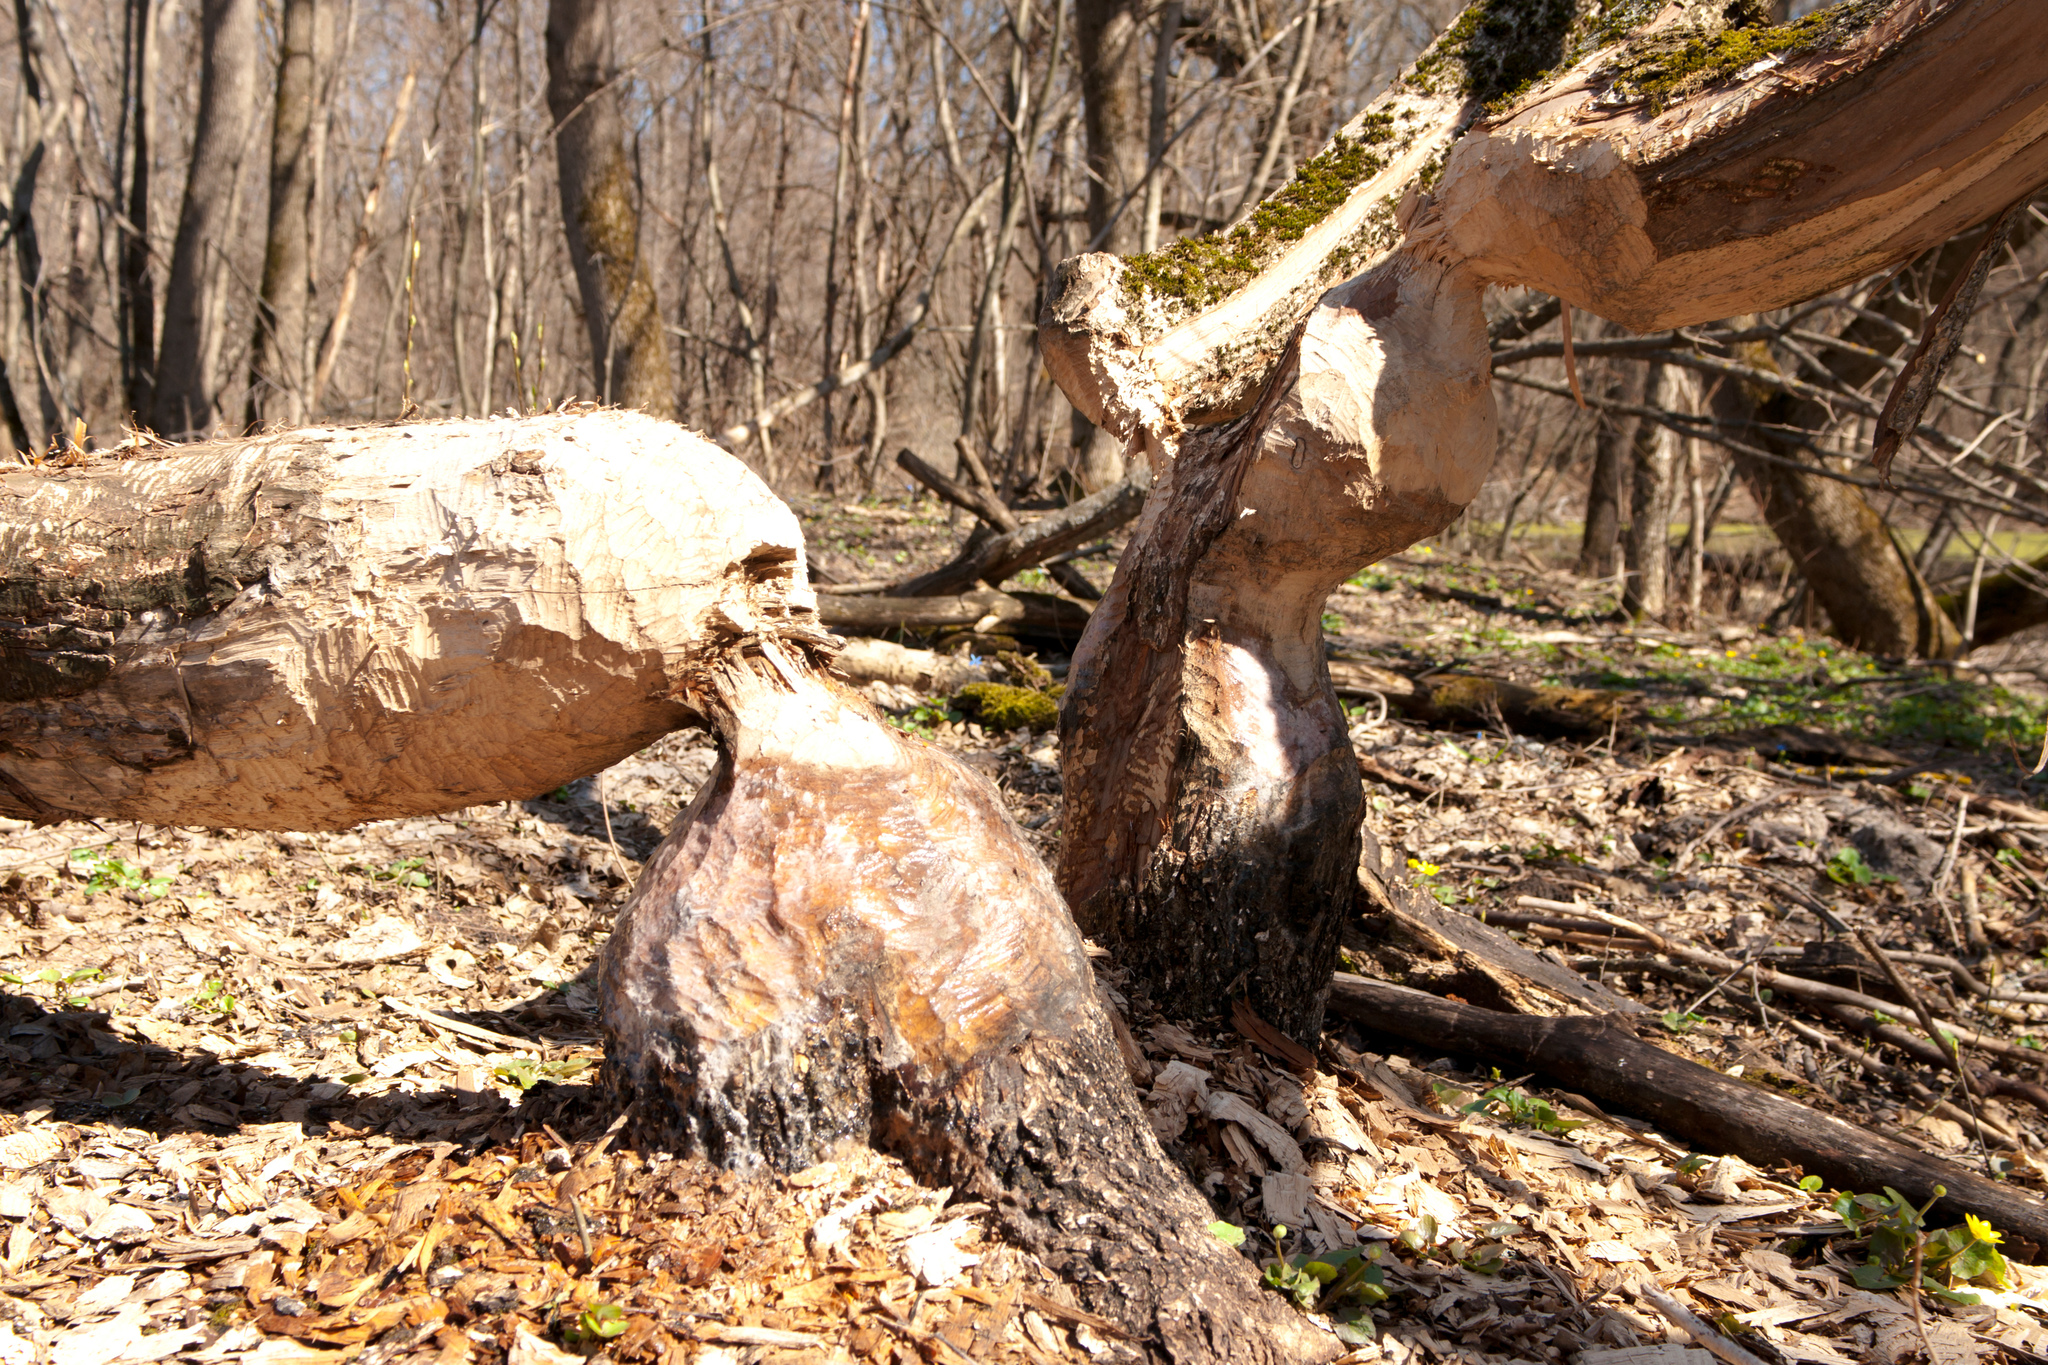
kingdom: Animalia
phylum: Chordata
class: Mammalia
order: Rodentia
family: Castoridae
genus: Castor
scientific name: Castor fiber
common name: Eurasian beaver
